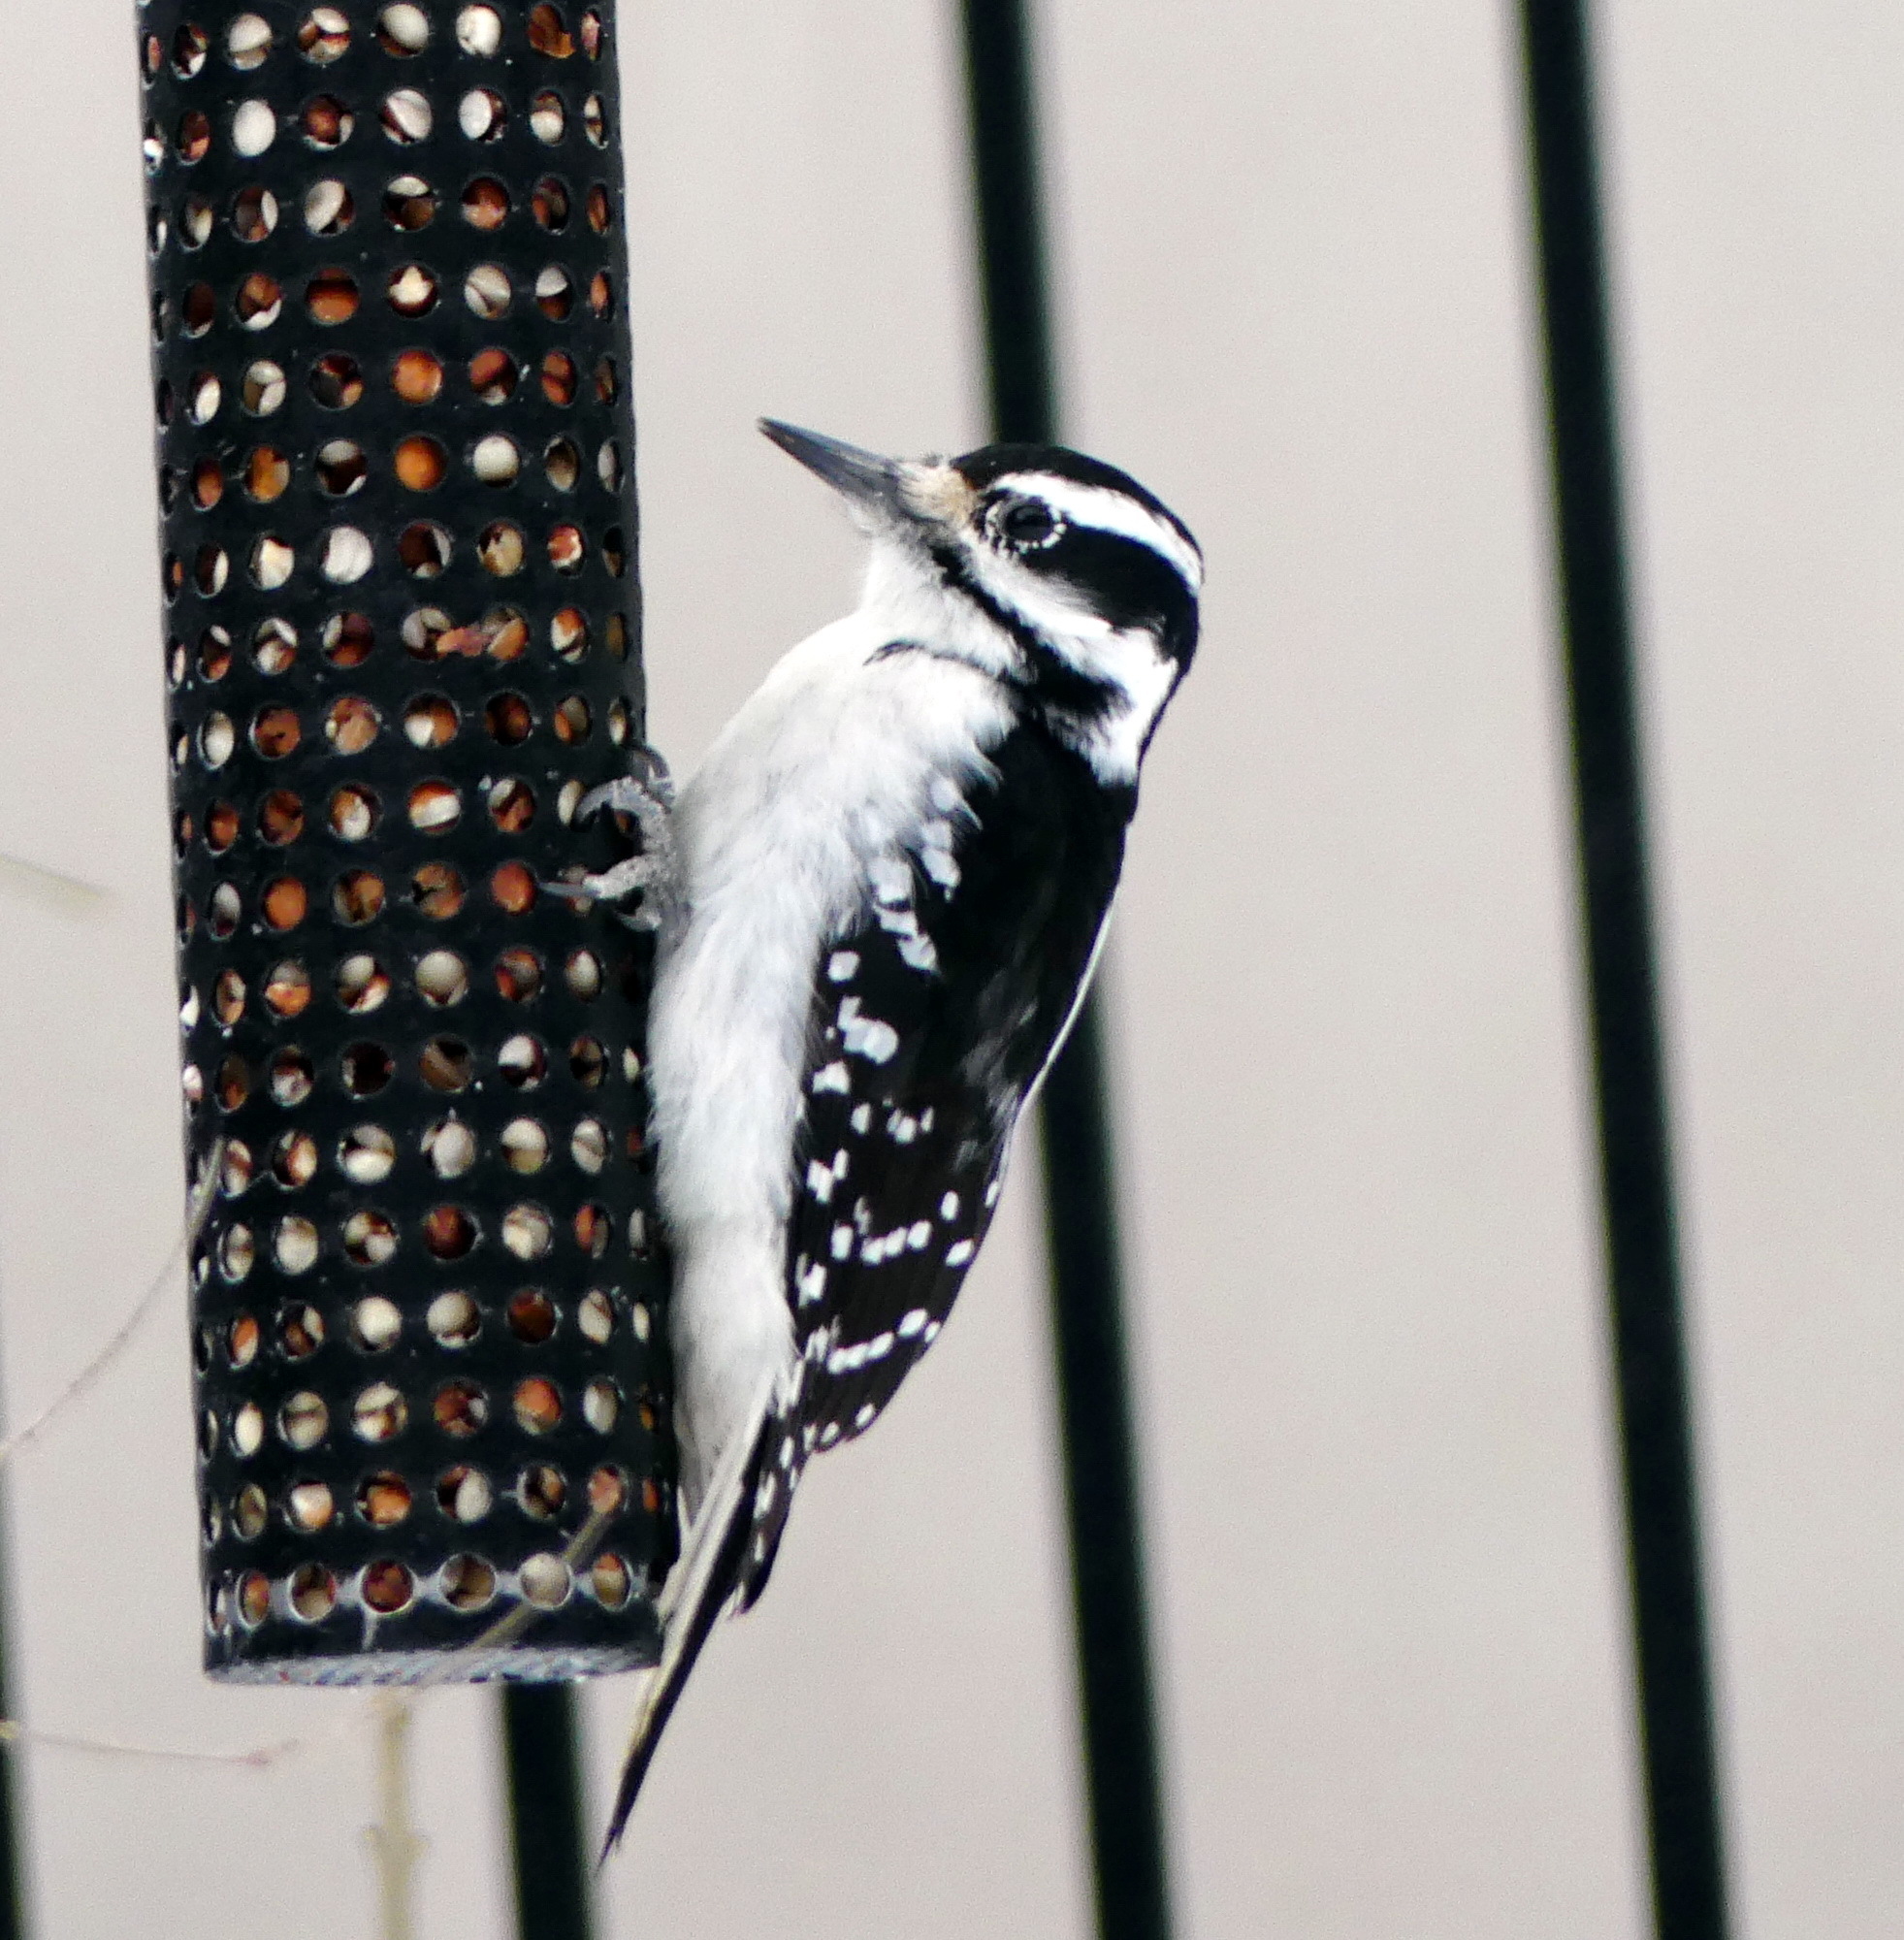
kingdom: Animalia
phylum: Chordata
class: Aves
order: Piciformes
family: Picidae
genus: Leuconotopicus
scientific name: Leuconotopicus villosus
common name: Hairy woodpecker
